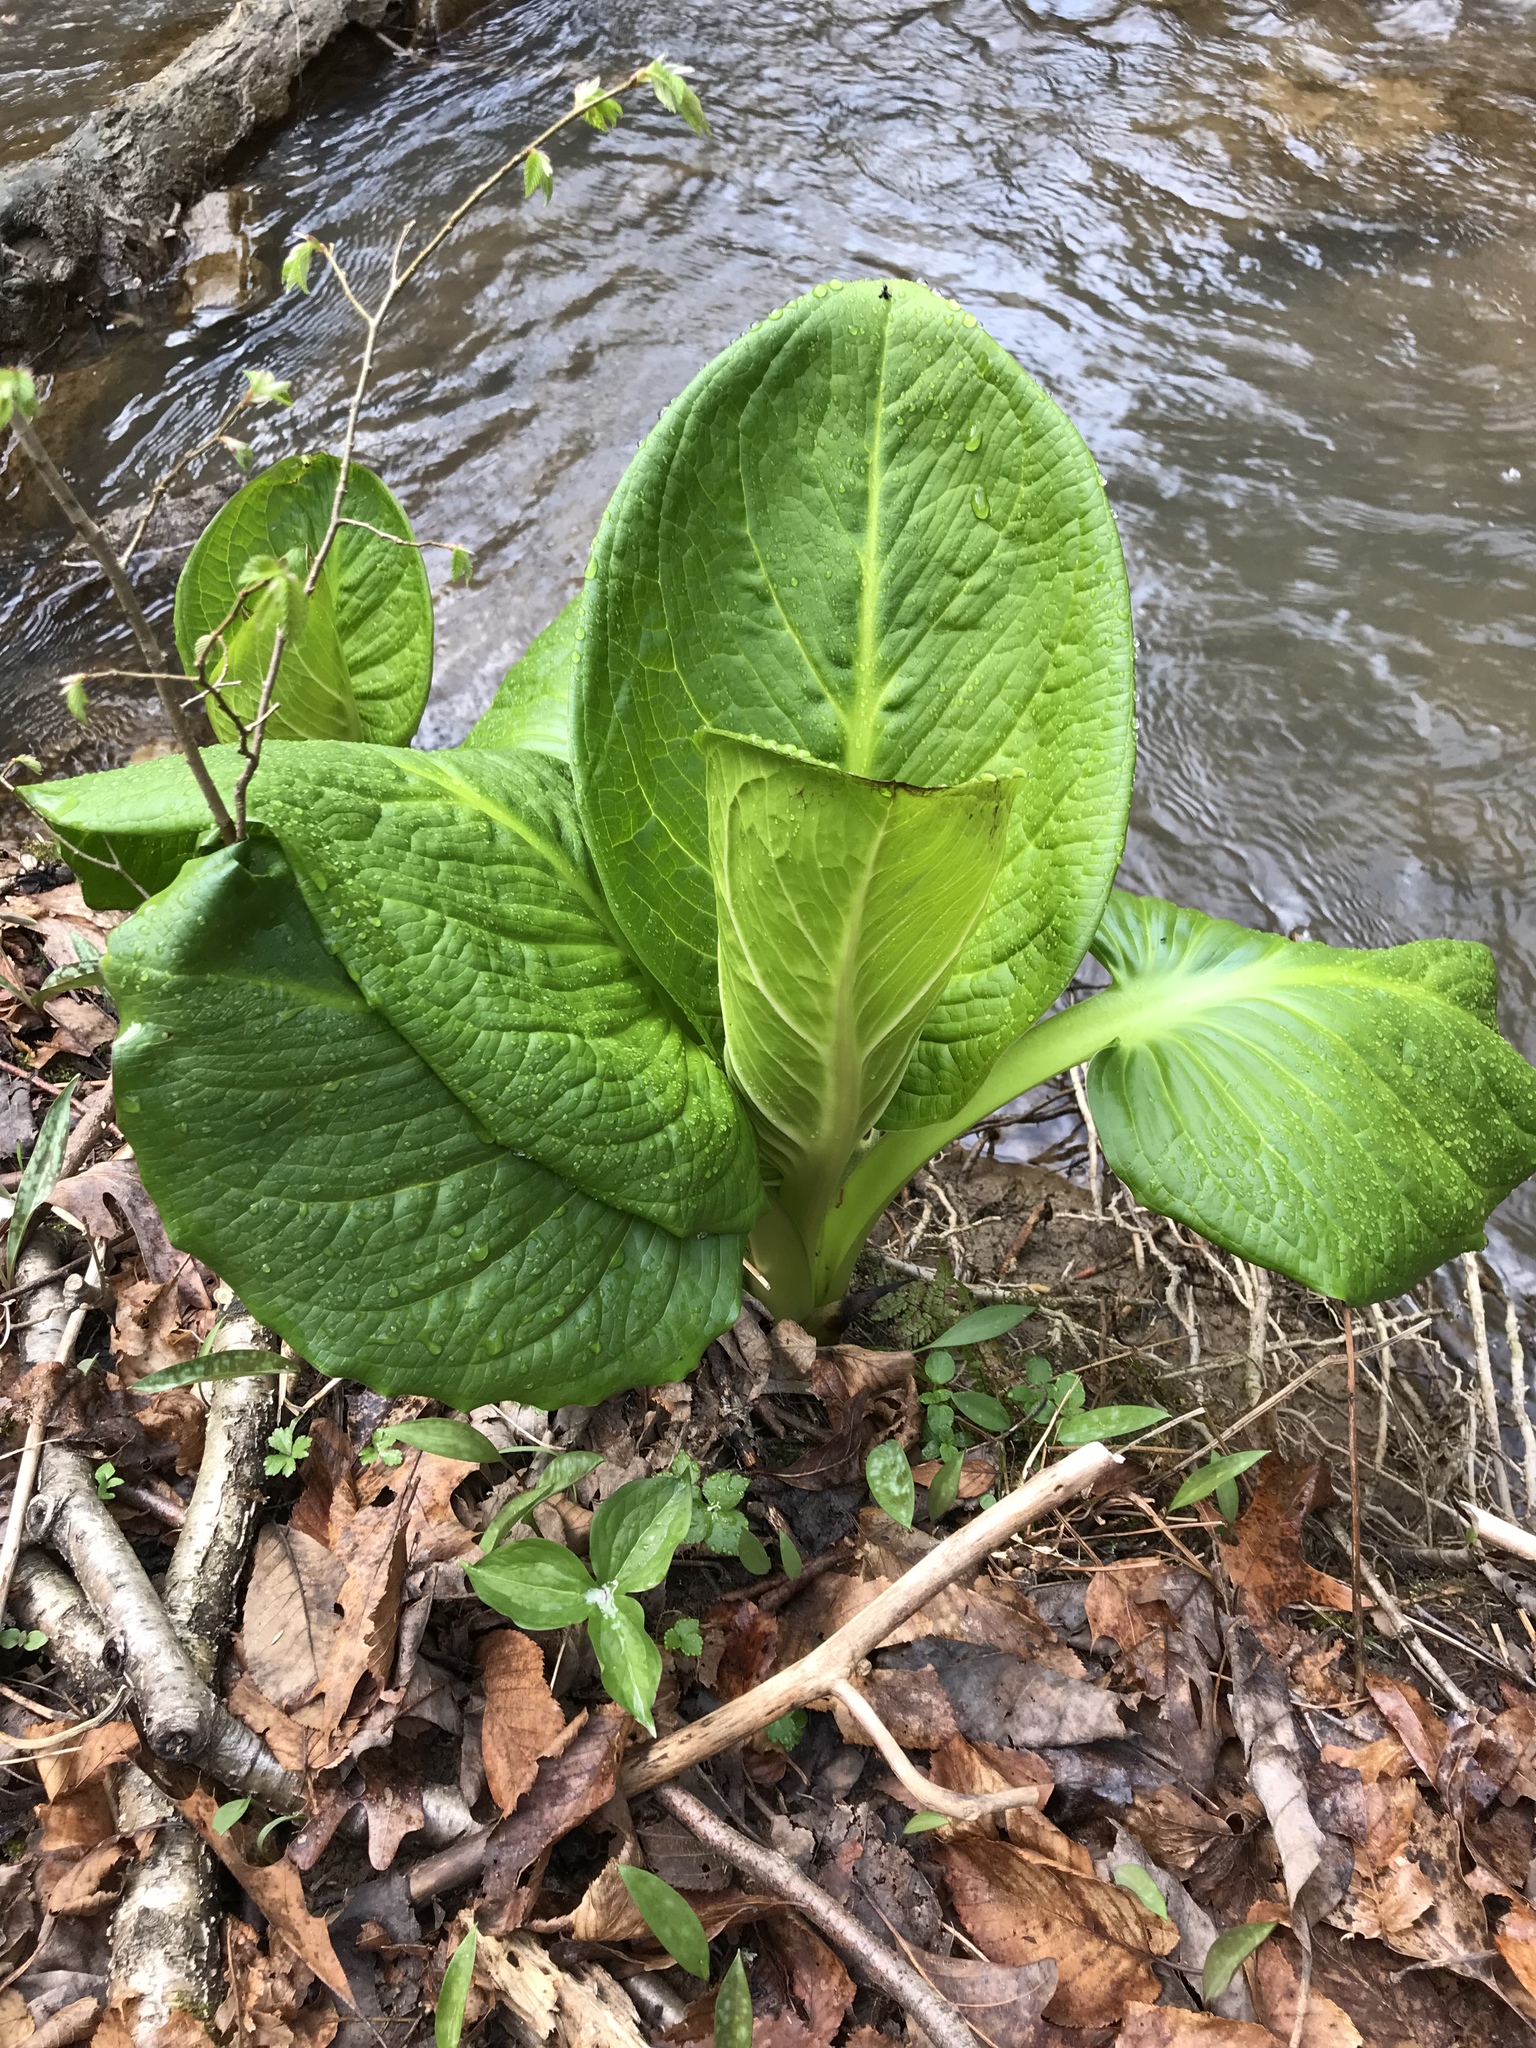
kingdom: Plantae
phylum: Tracheophyta
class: Liliopsida
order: Alismatales
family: Araceae
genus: Symplocarpus
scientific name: Symplocarpus foetidus
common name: Eastern skunk cabbage
